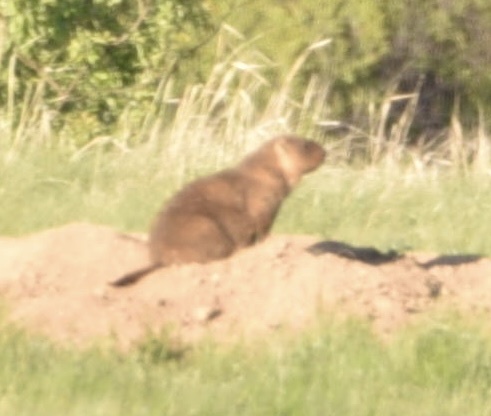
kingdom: Animalia
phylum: Chordata
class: Mammalia
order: Rodentia
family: Sciuridae
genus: Marmota
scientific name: Marmota bobak
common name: Bobak marmot
